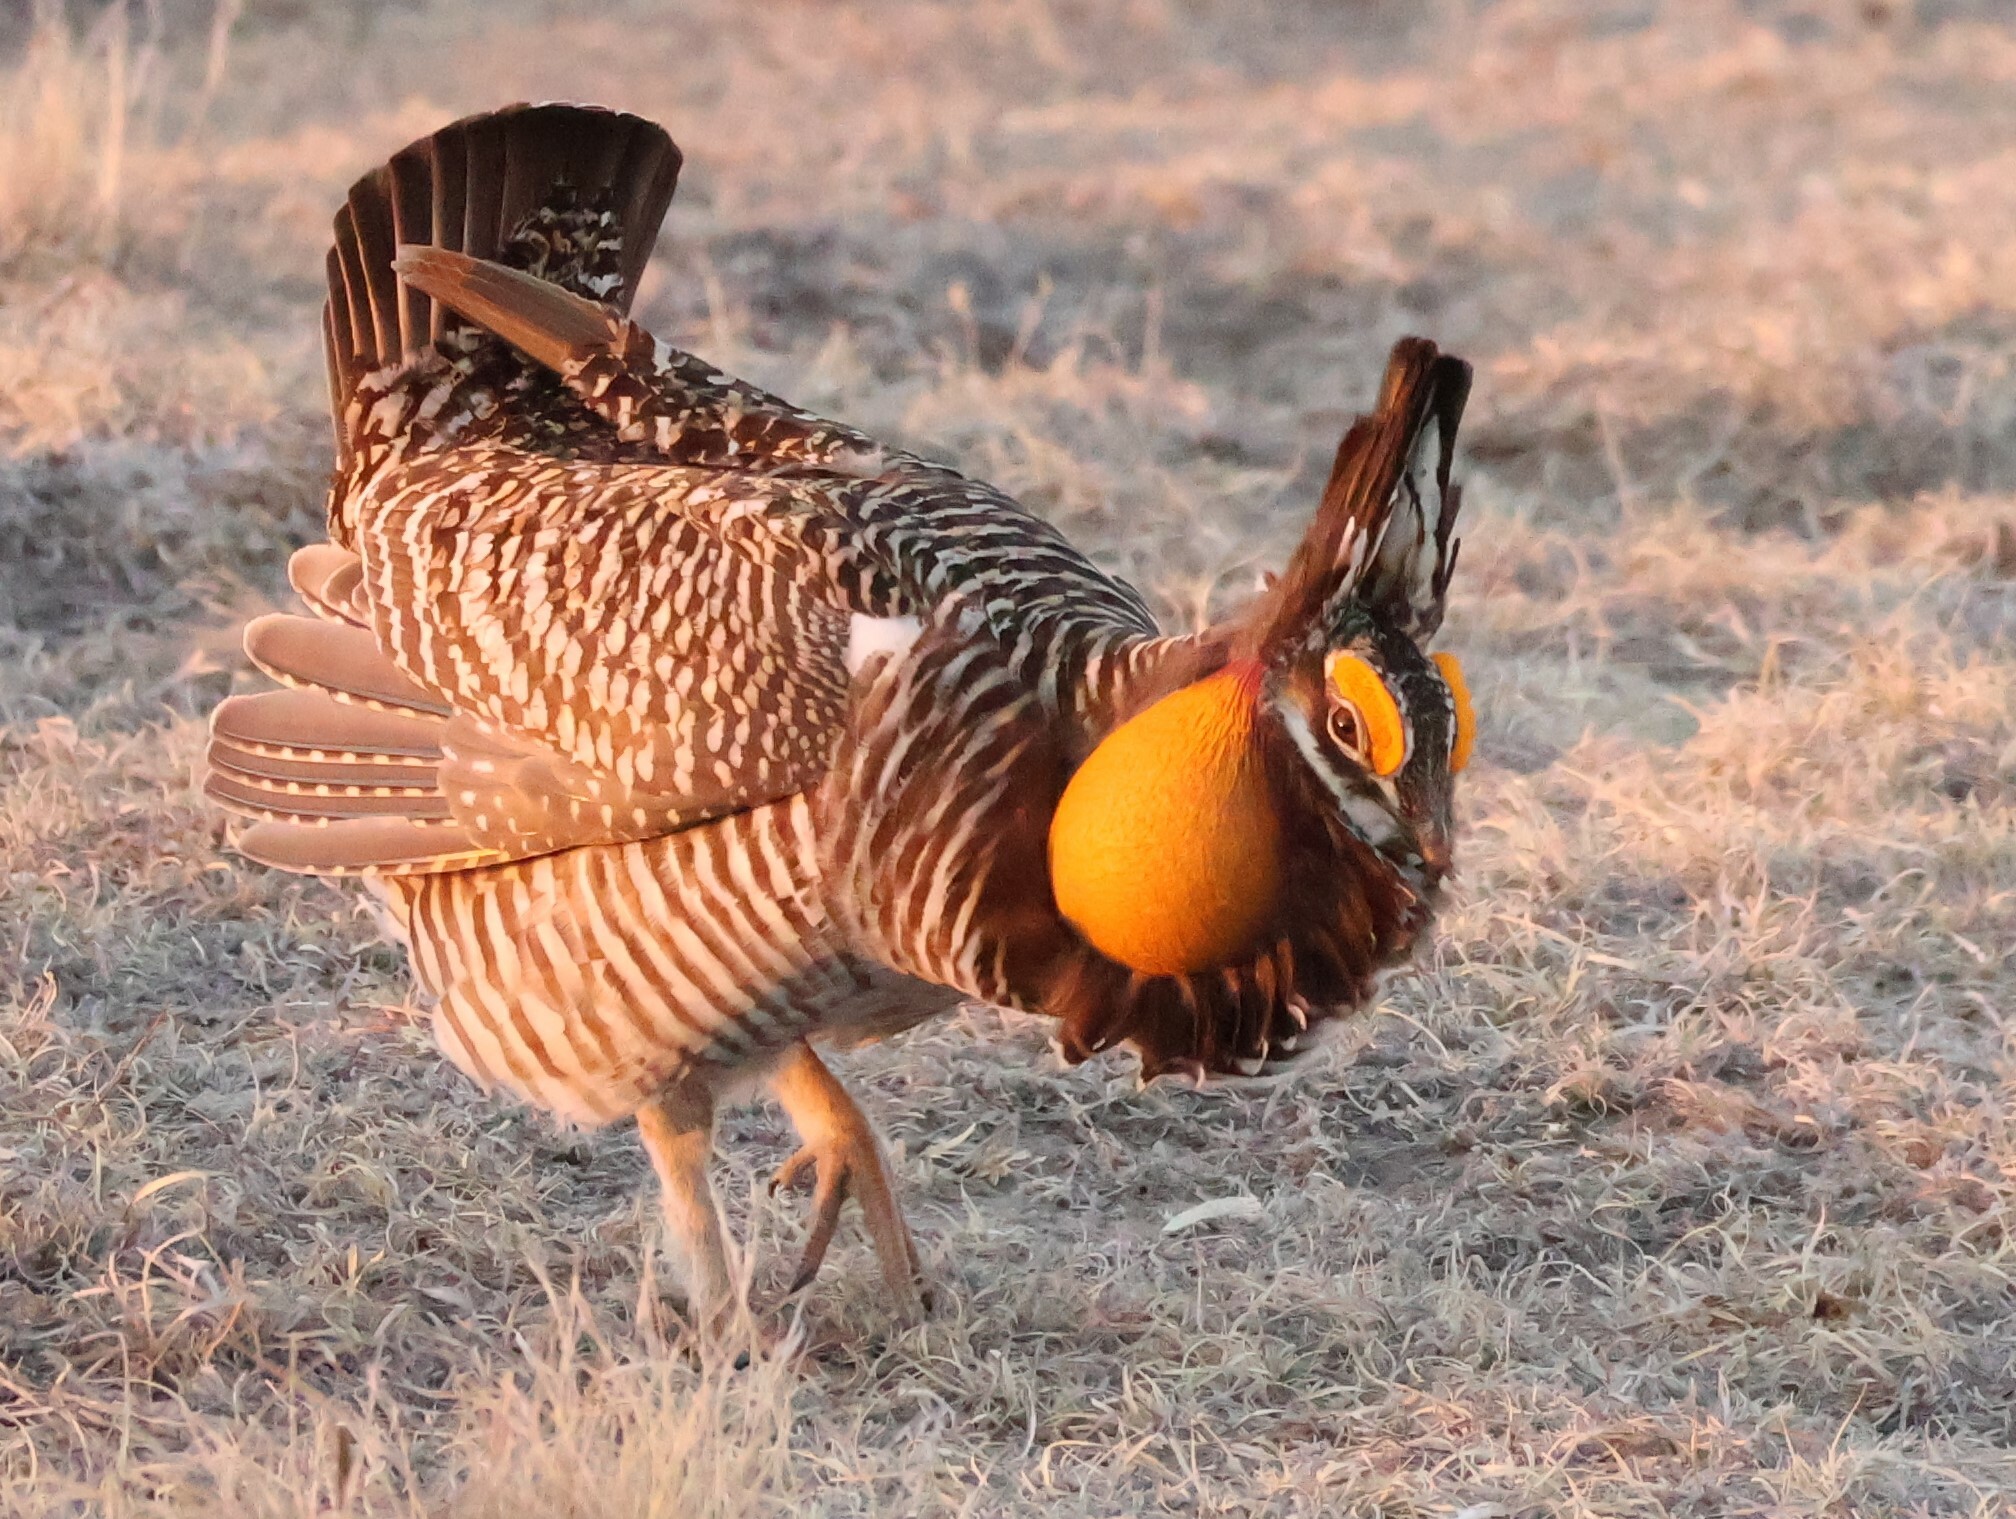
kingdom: Animalia
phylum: Chordata
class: Aves
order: Galliformes
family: Phasianidae
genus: Tympanuchus
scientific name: Tympanuchus cupido
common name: Greater prairie chicken
